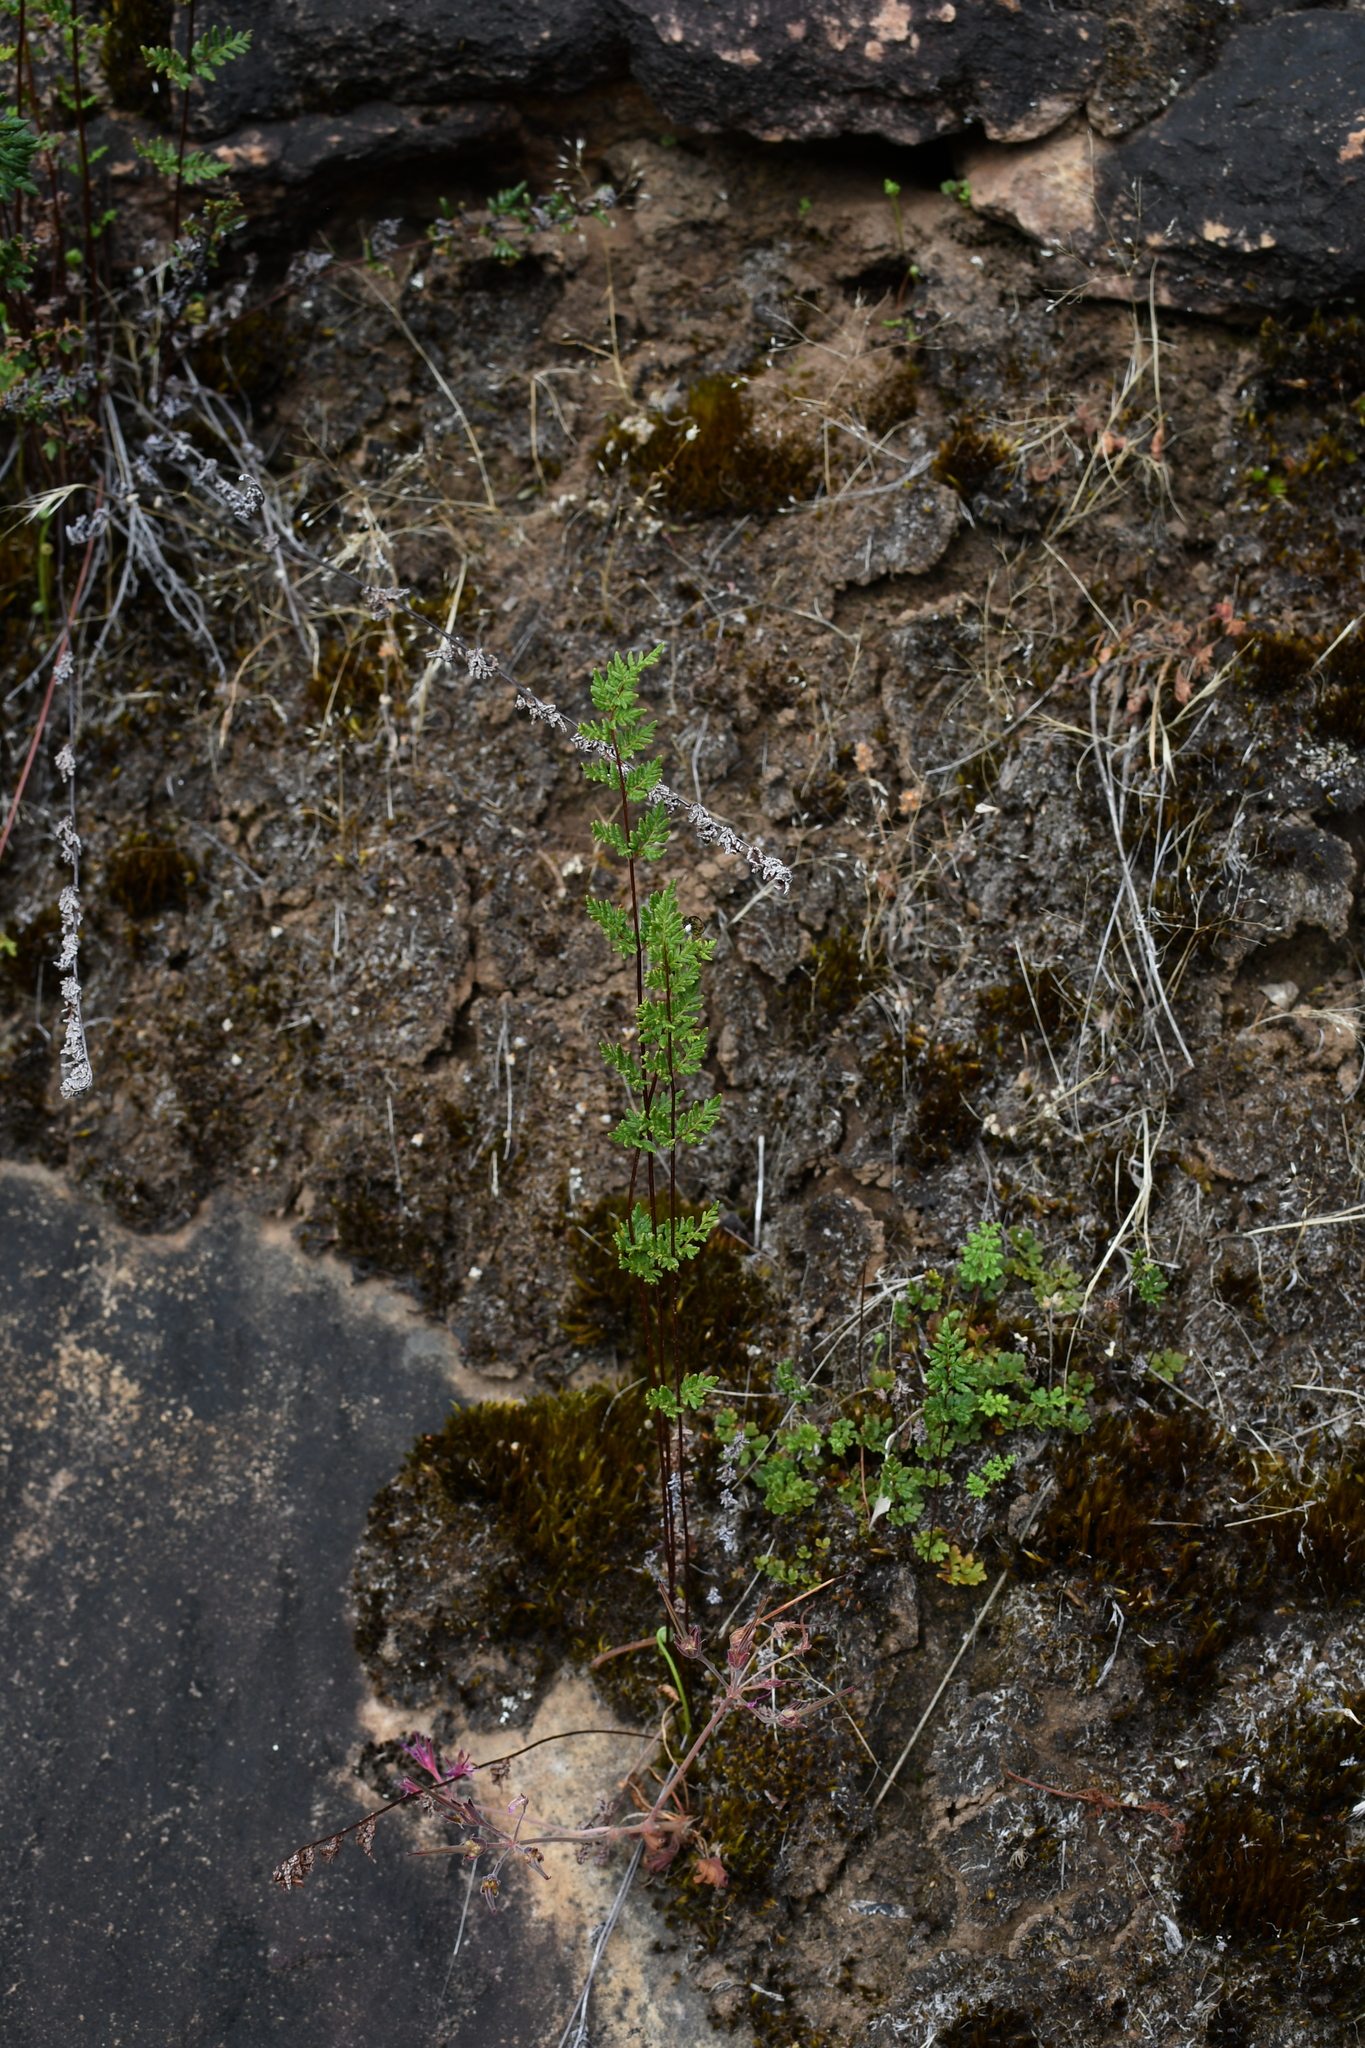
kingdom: Plantae
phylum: Tracheophyta
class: Polypodiopsida
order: Polypodiales
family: Pteridaceae
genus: Cheilanthes
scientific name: Cheilanthes sieberi
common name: Mulga fern
